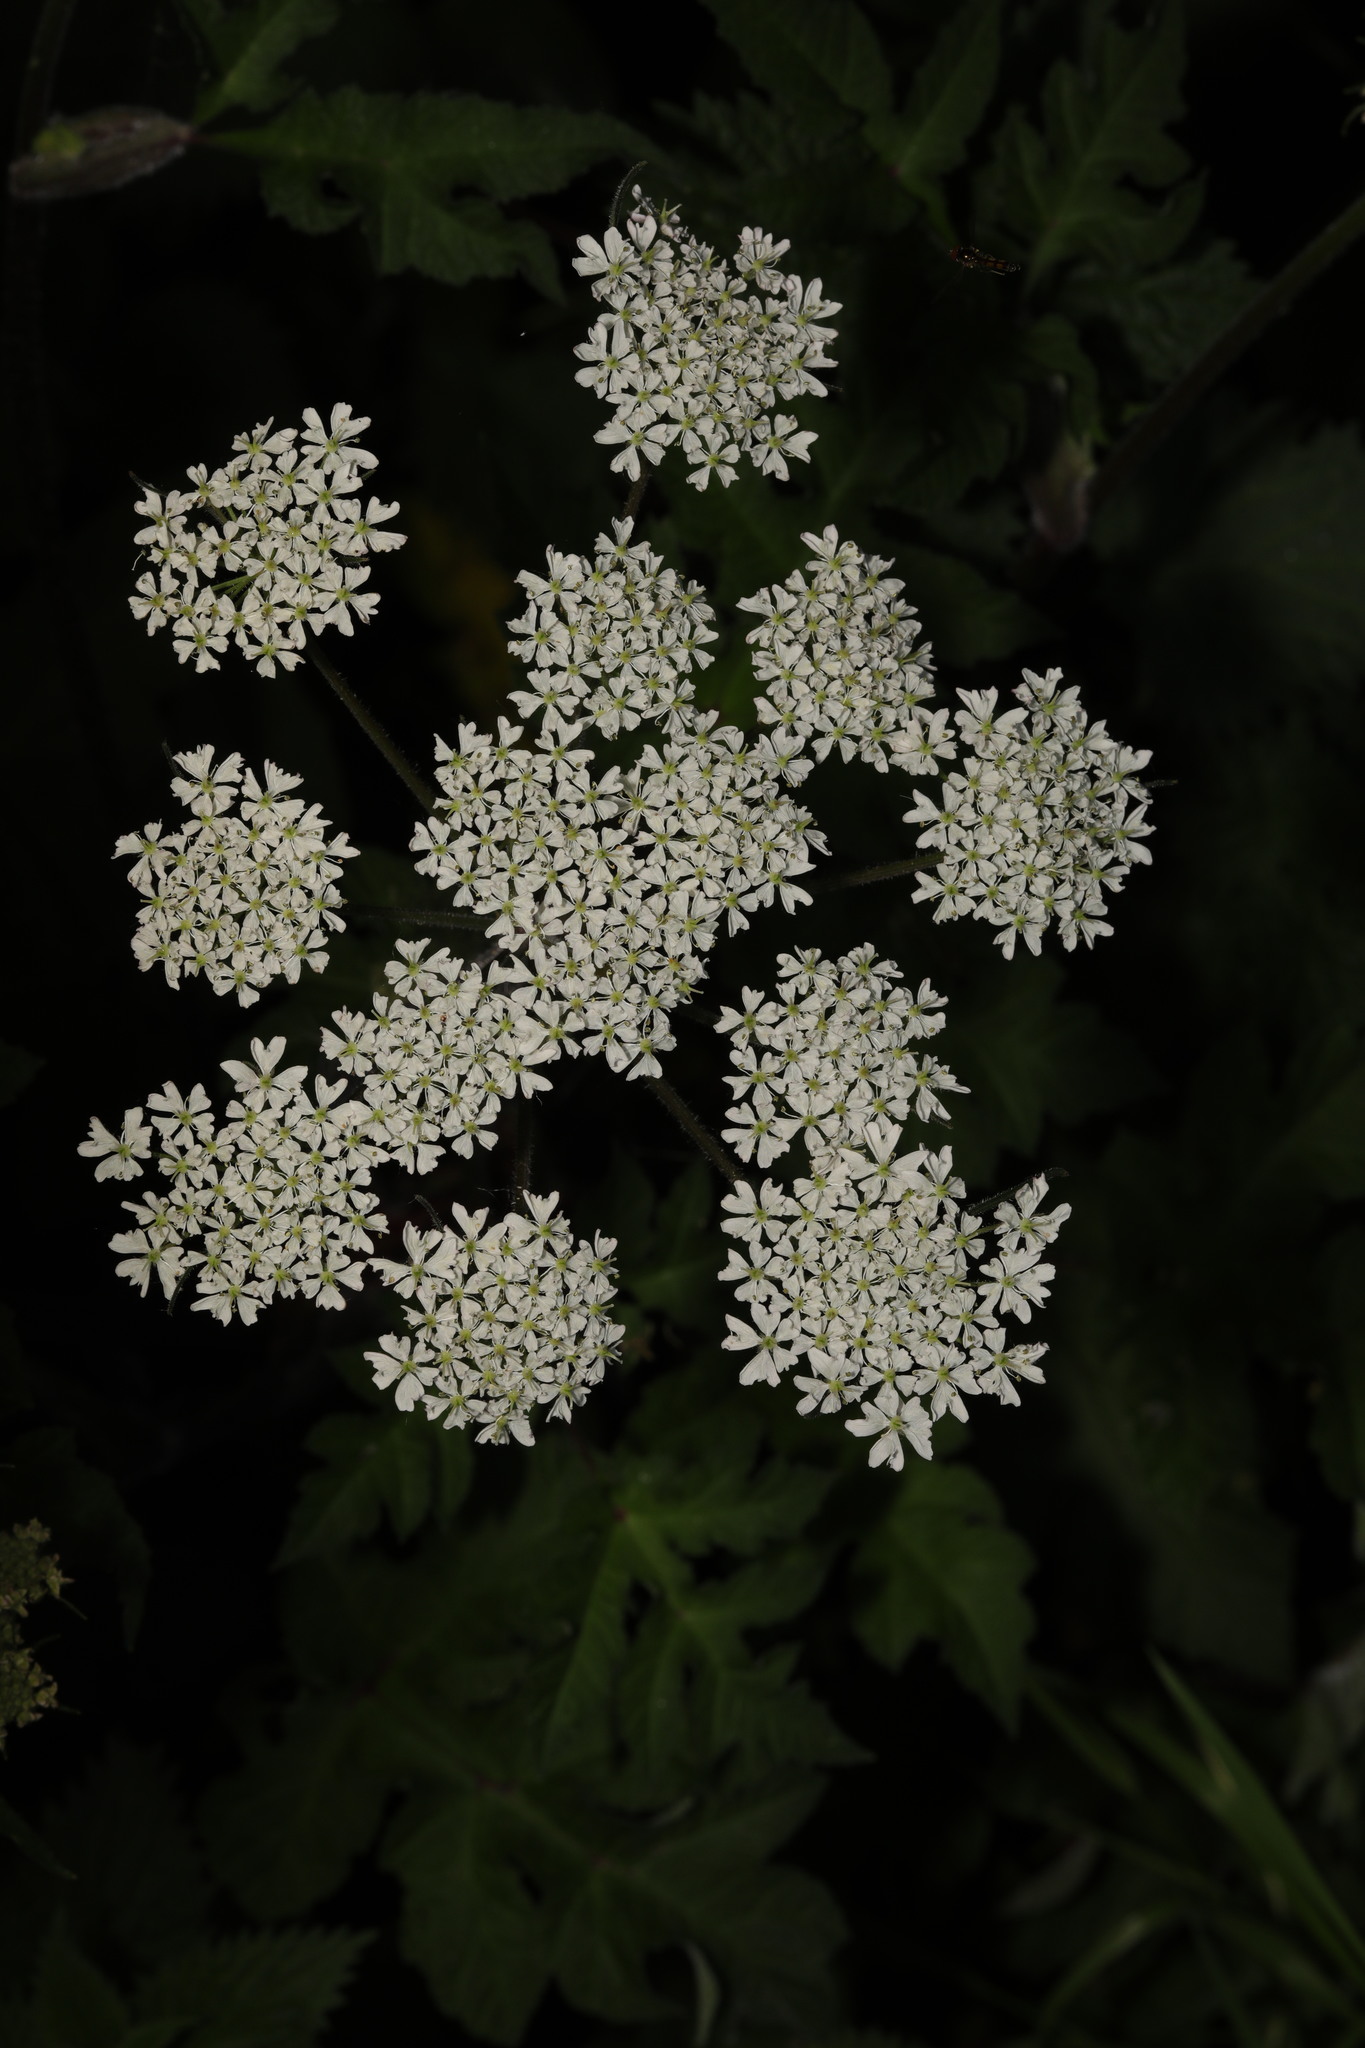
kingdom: Plantae
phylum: Tracheophyta
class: Magnoliopsida
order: Apiales
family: Apiaceae
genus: Heracleum
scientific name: Heracleum sphondylium
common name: Hogweed
